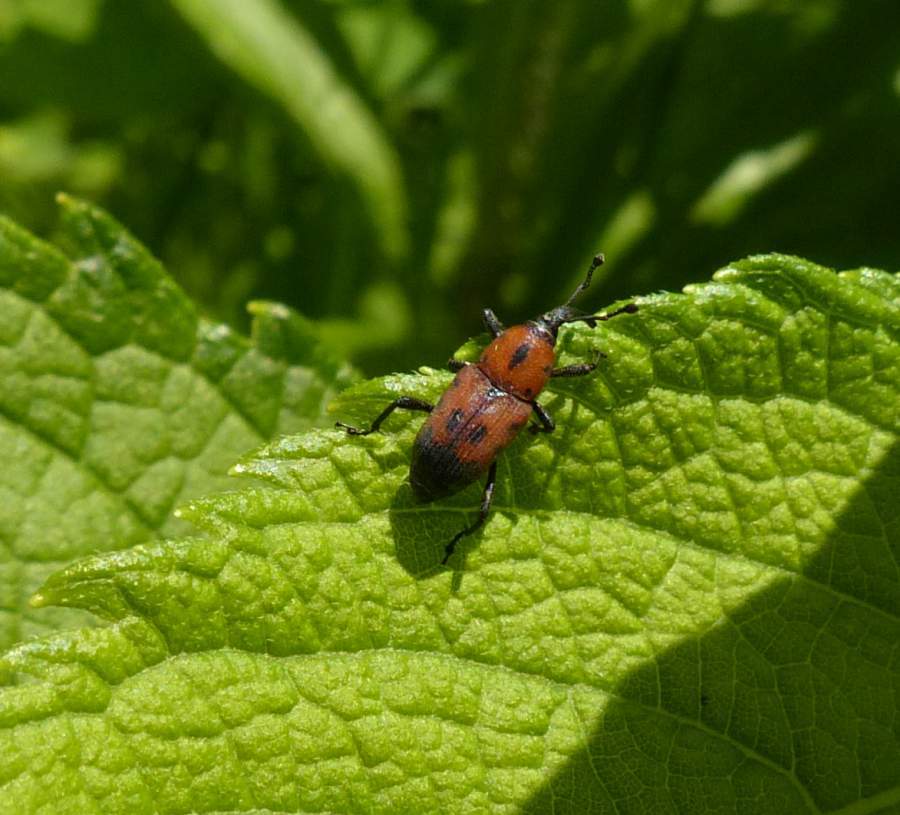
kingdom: Animalia
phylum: Arthropoda
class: Insecta
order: Coleoptera
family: Dryophthoridae
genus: Rhodobaenus
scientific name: Rhodobaenus quinquepunctatus
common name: Cocklebur weevil
